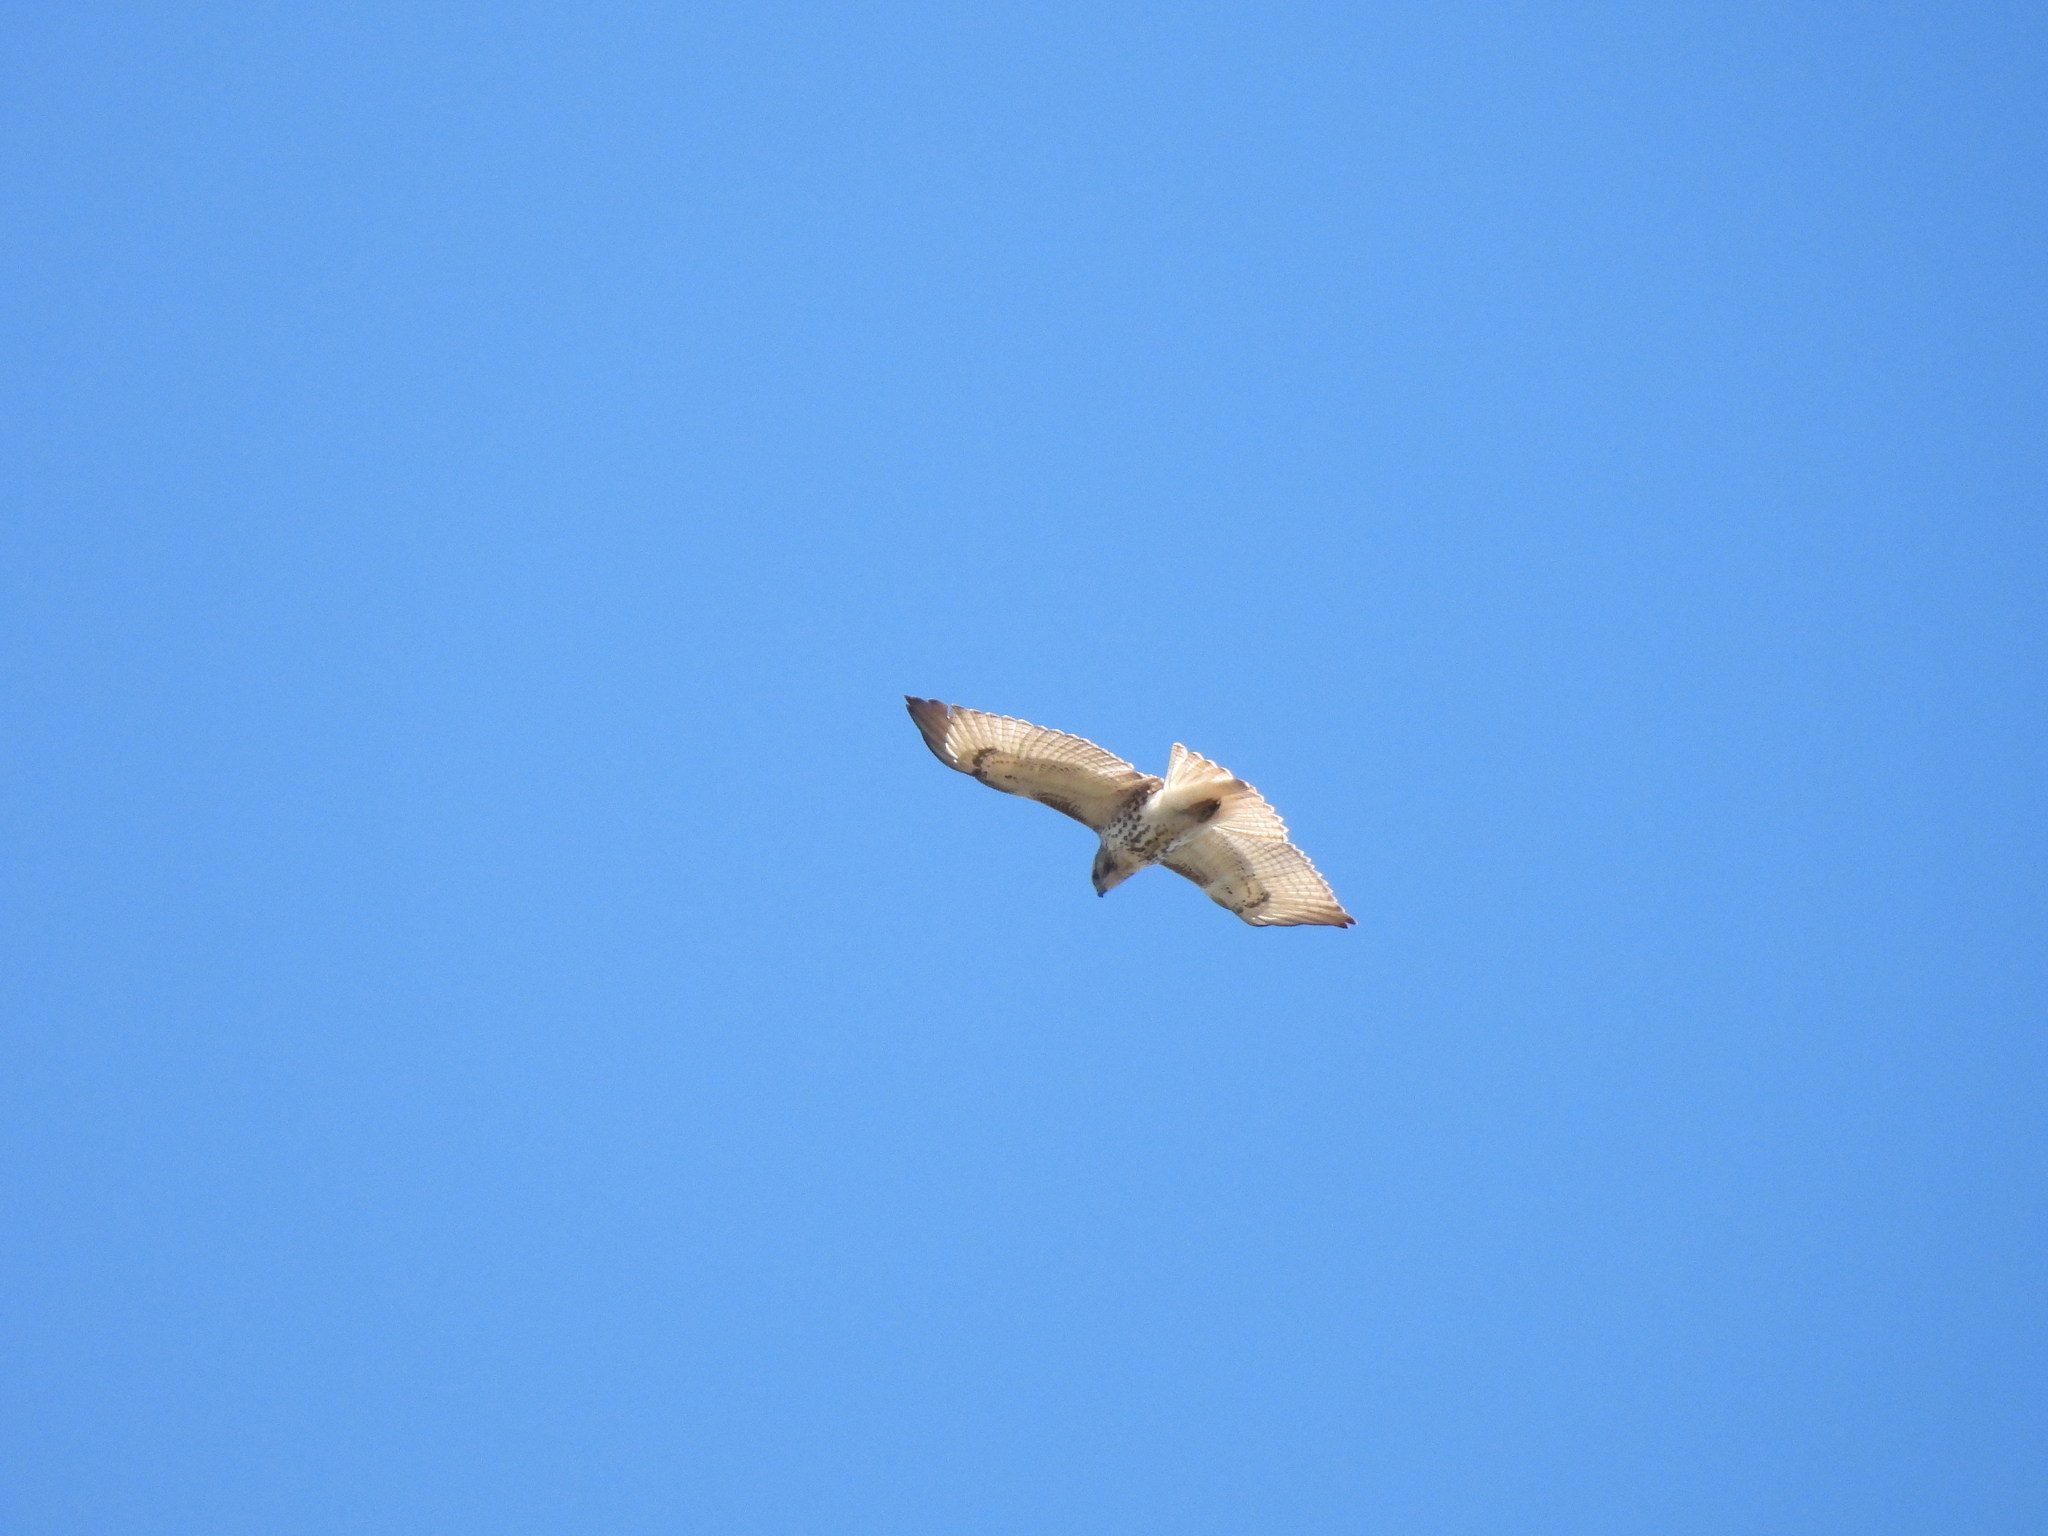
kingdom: Animalia
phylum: Chordata
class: Aves
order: Accipitriformes
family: Accipitridae
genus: Buteo
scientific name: Buteo jamaicensis
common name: Red-tailed hawk
